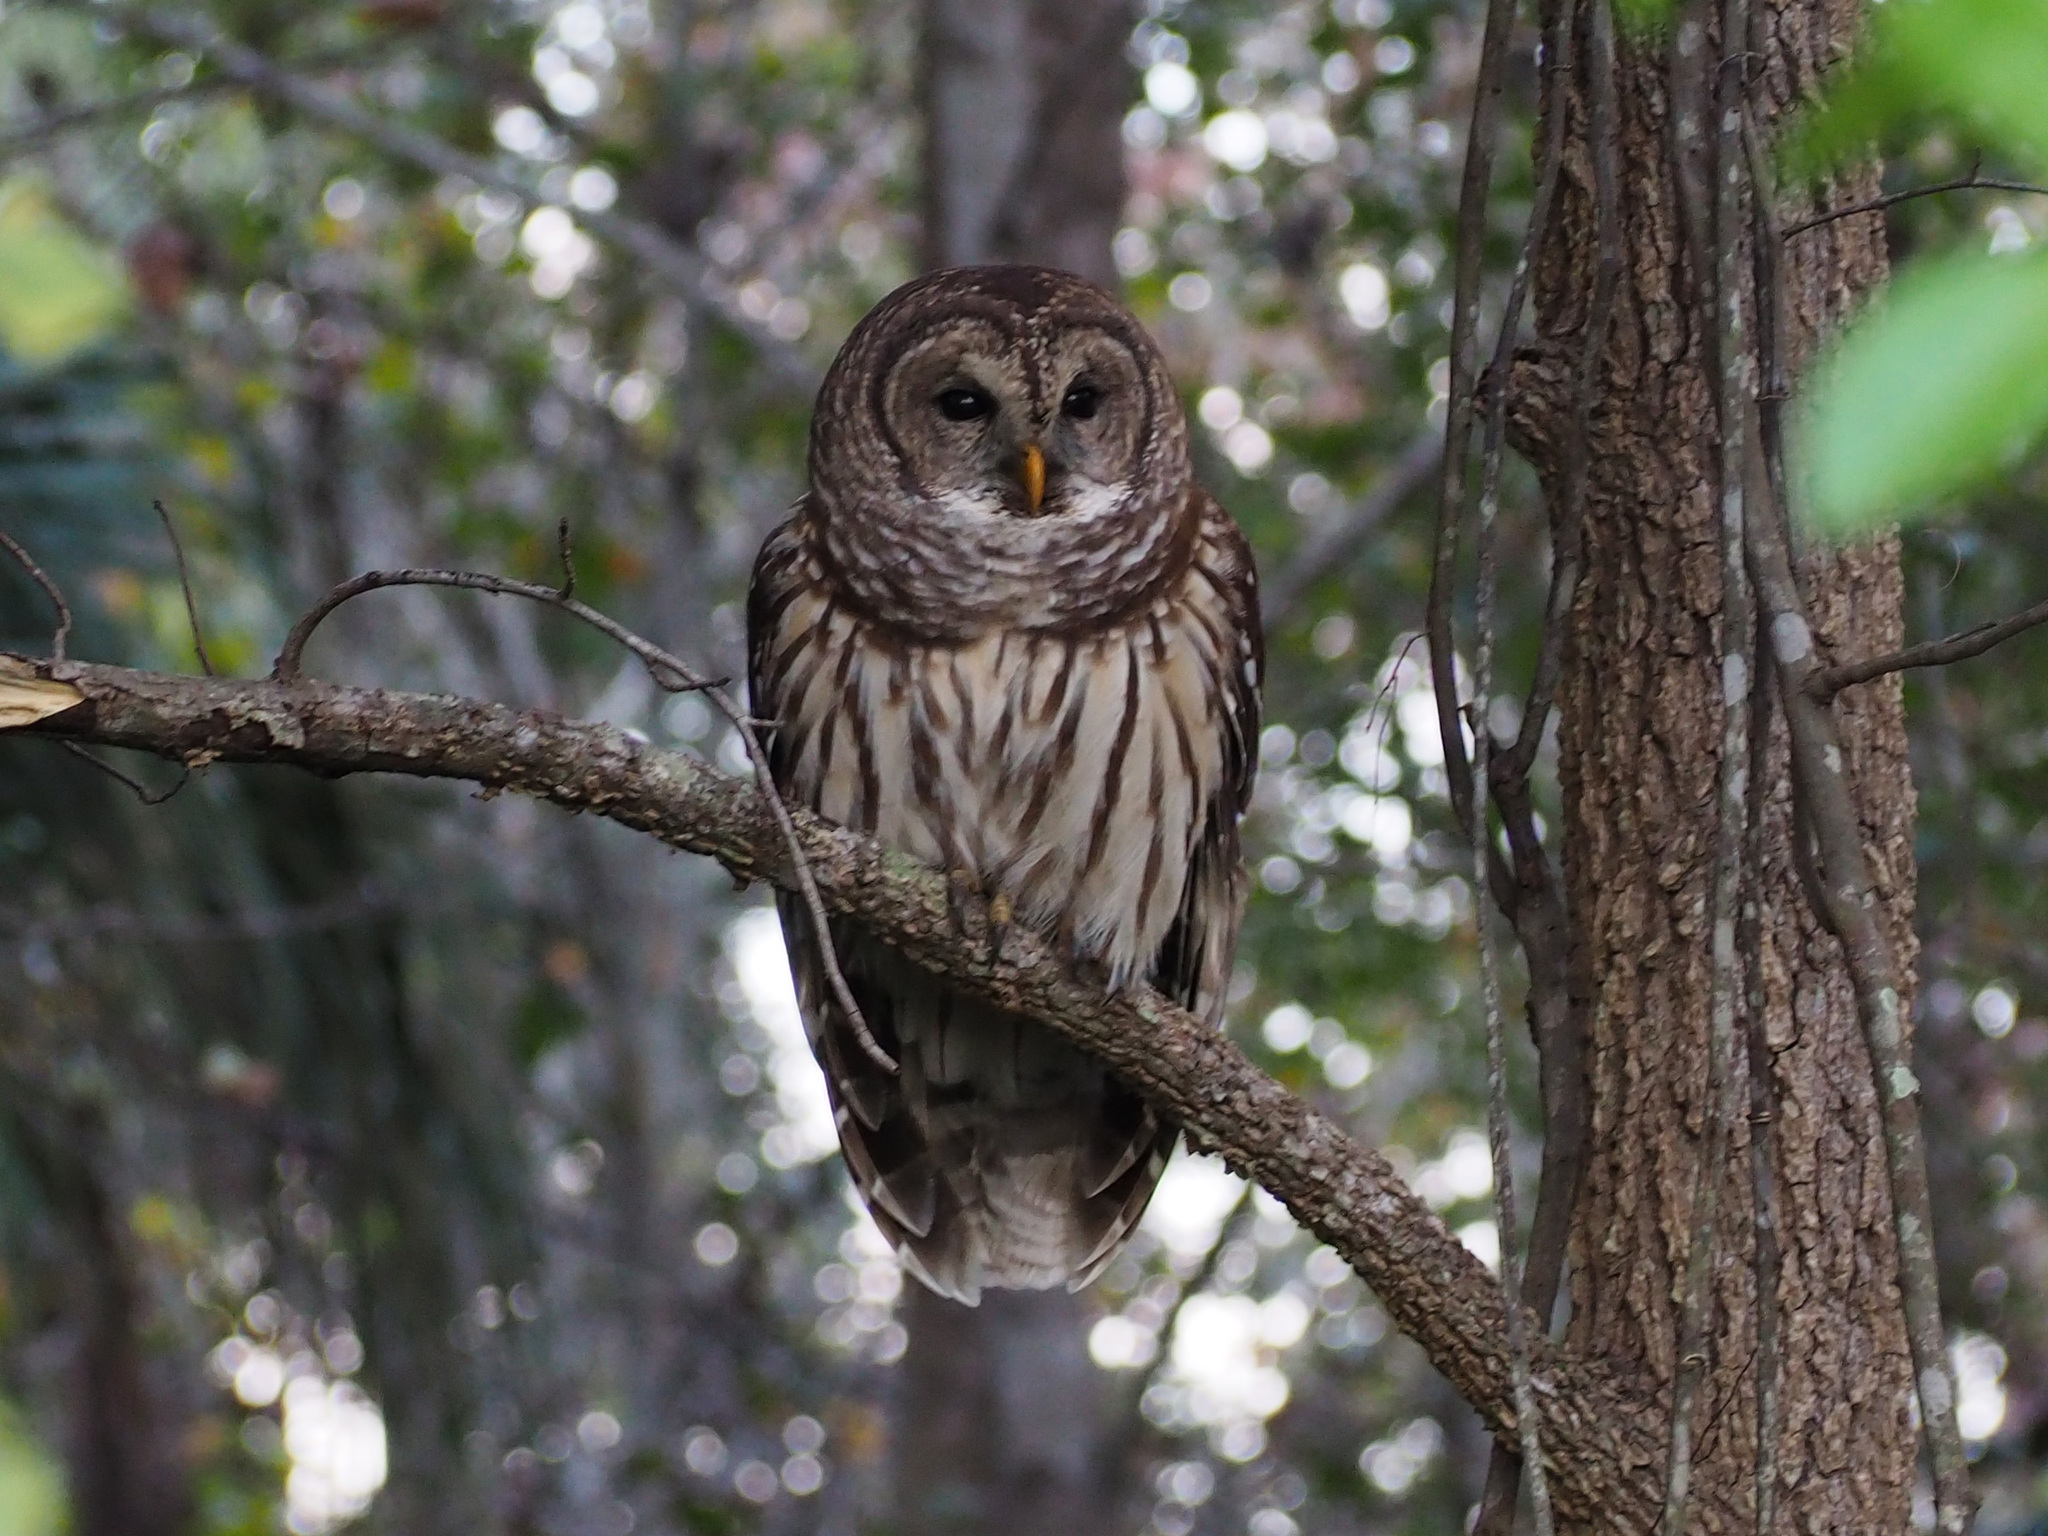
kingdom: Animalia
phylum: Chordata
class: Aves
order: Strigiformes
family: Strigidae
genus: Strix
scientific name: Strix varia
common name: Barred owl
